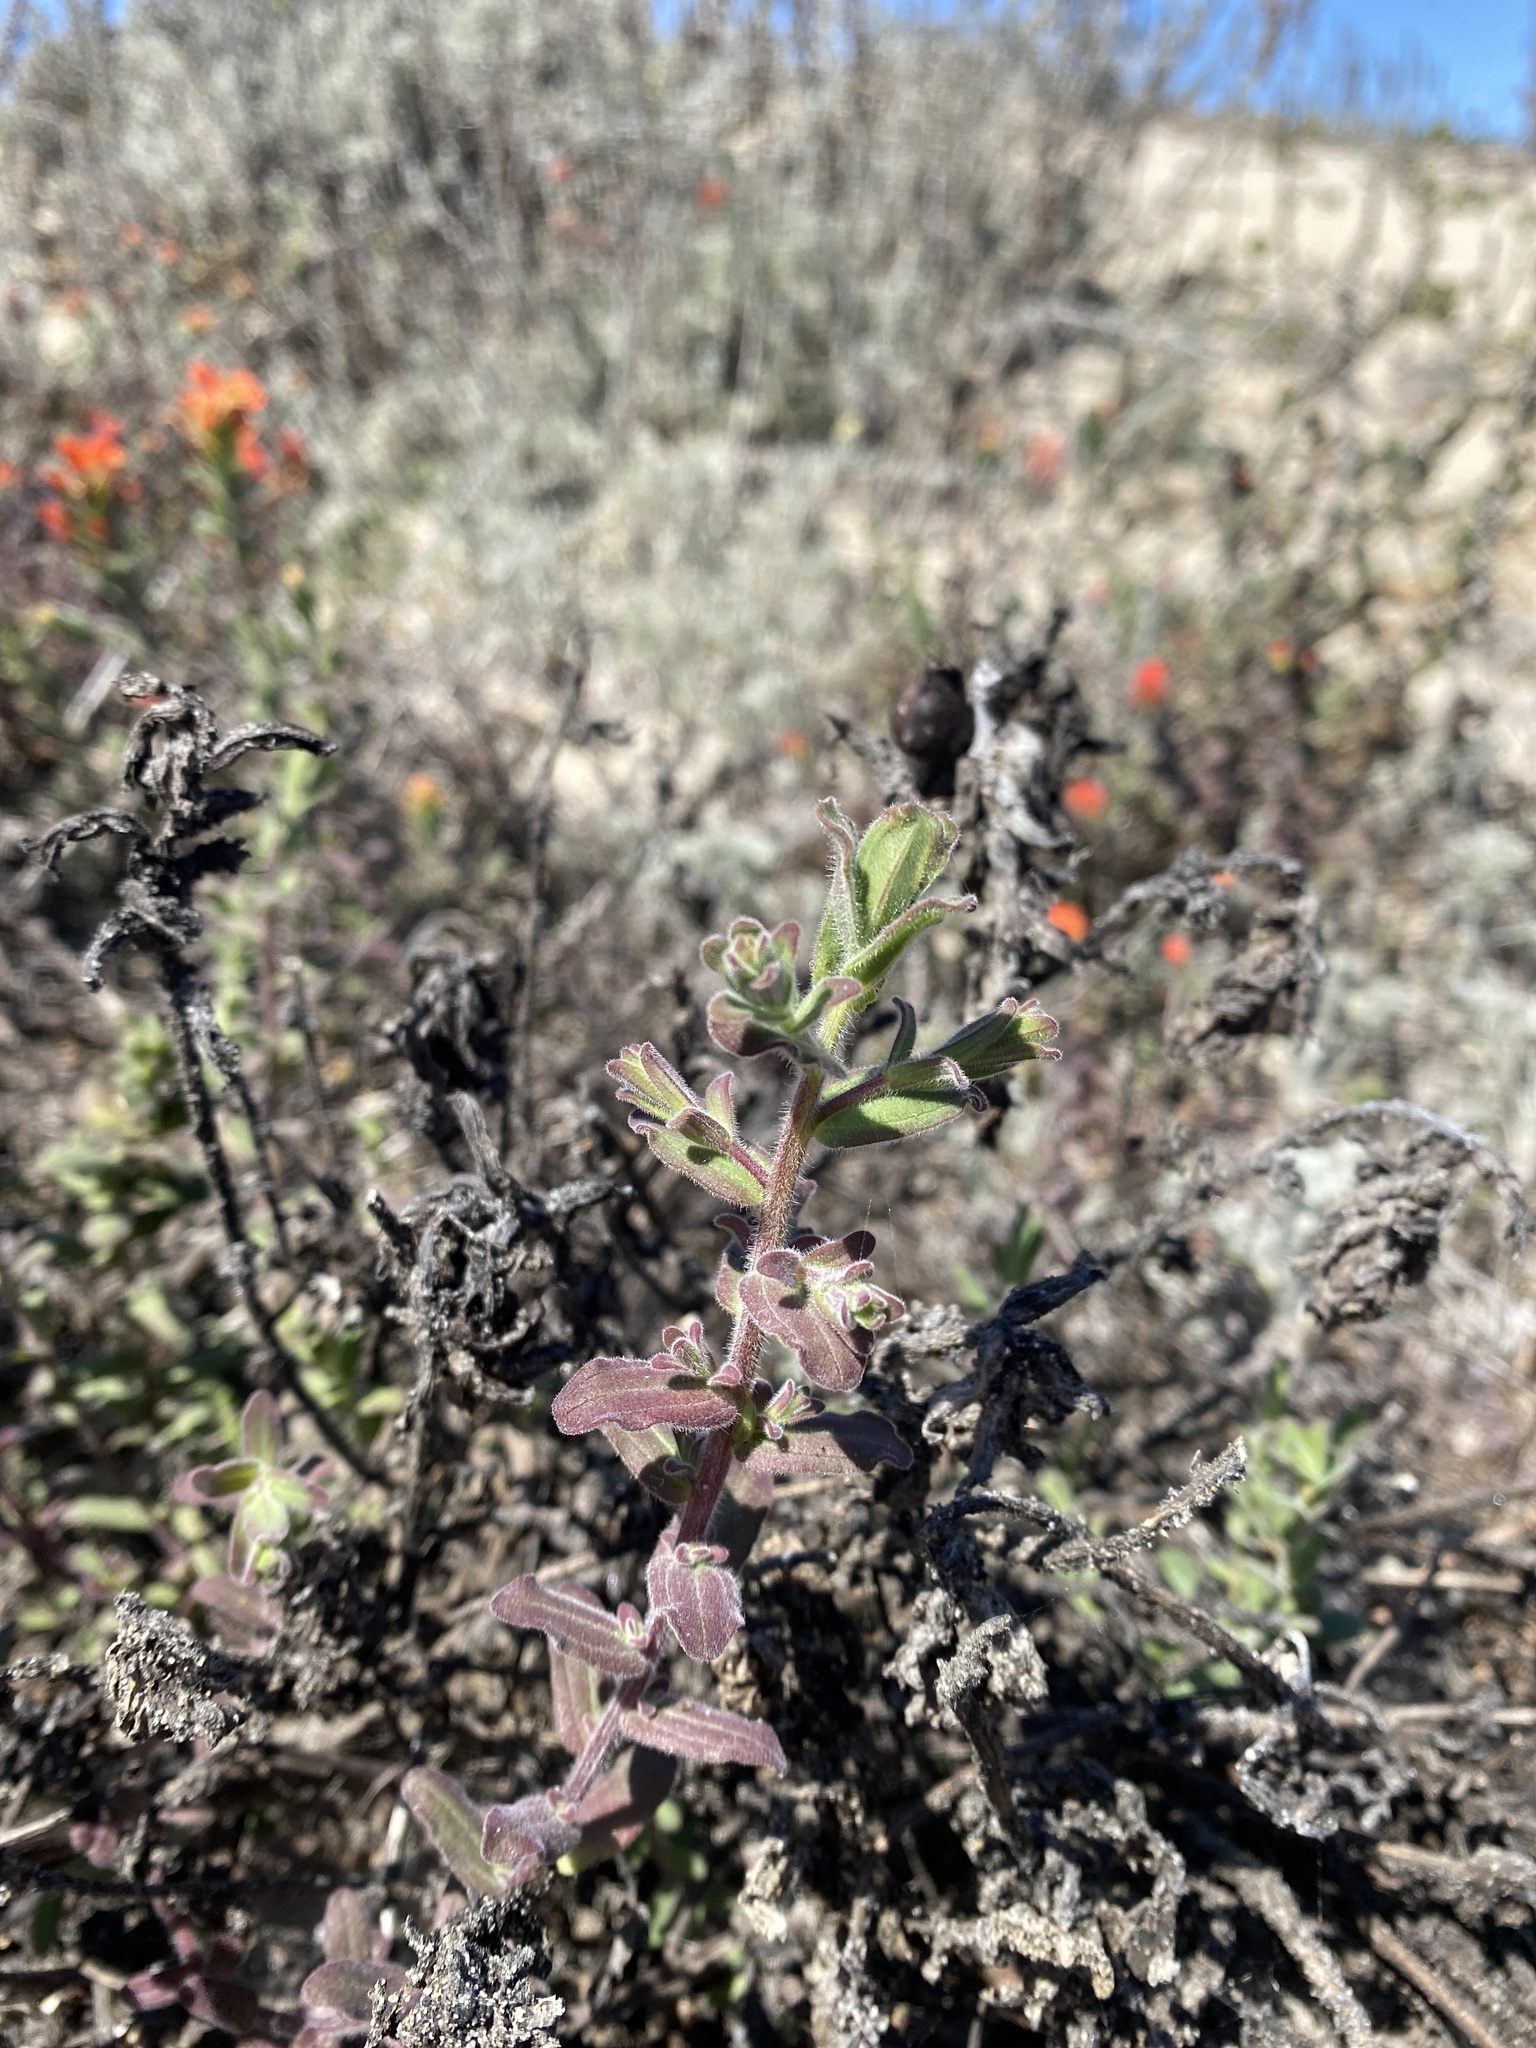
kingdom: Plantae
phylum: Tracheophyta
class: Magnoliopsida
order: Lamiales
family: Orobanchaceae
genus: Castilleja
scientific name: Castilleja latifolia
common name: Monterey indian paintbrush
